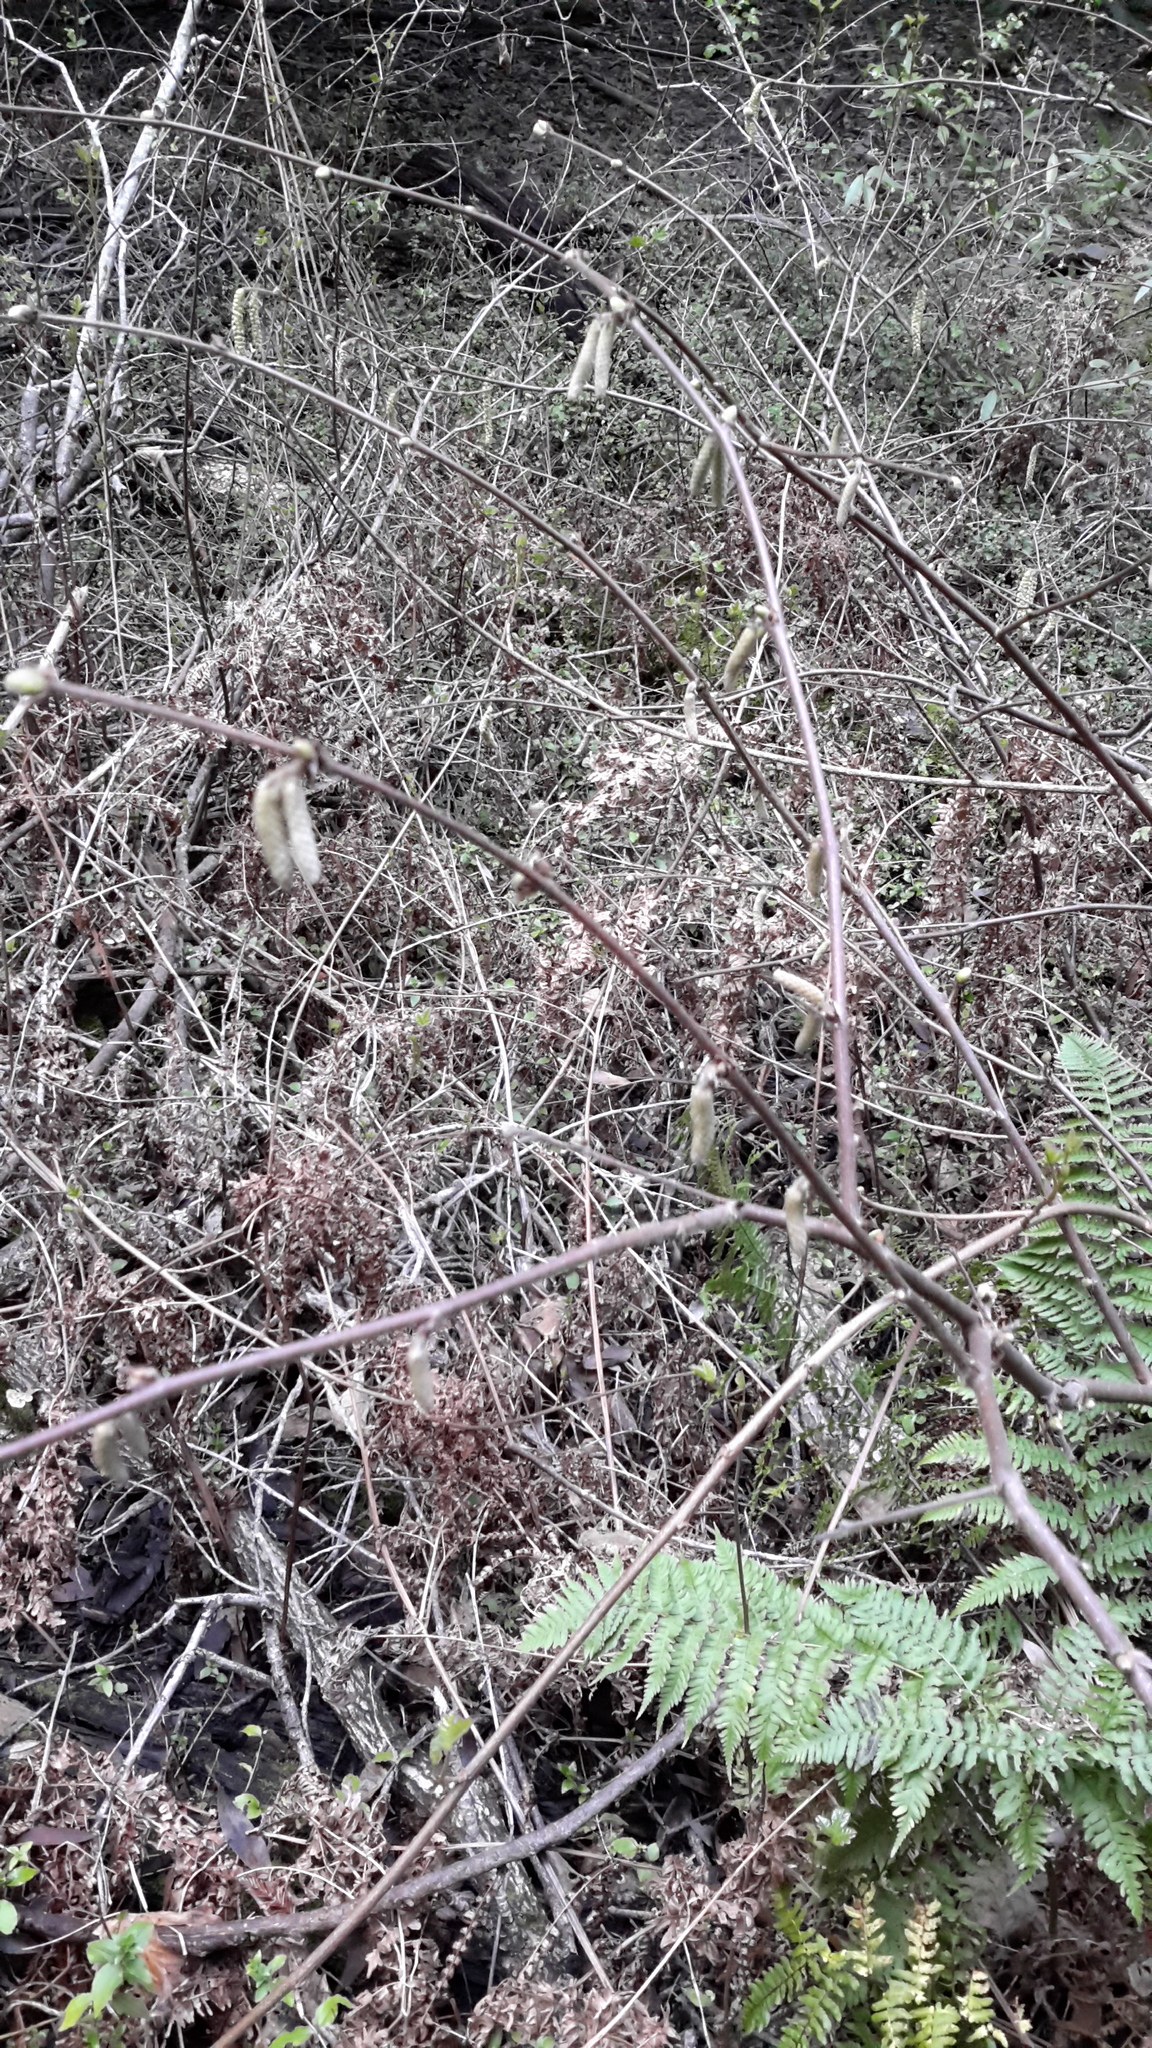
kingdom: Plantae
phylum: Tracheophyta
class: Magnoliopsida
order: Fagales
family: Betulaceae
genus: Corylus
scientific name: Corylus cornuta
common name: Beaked hazel
